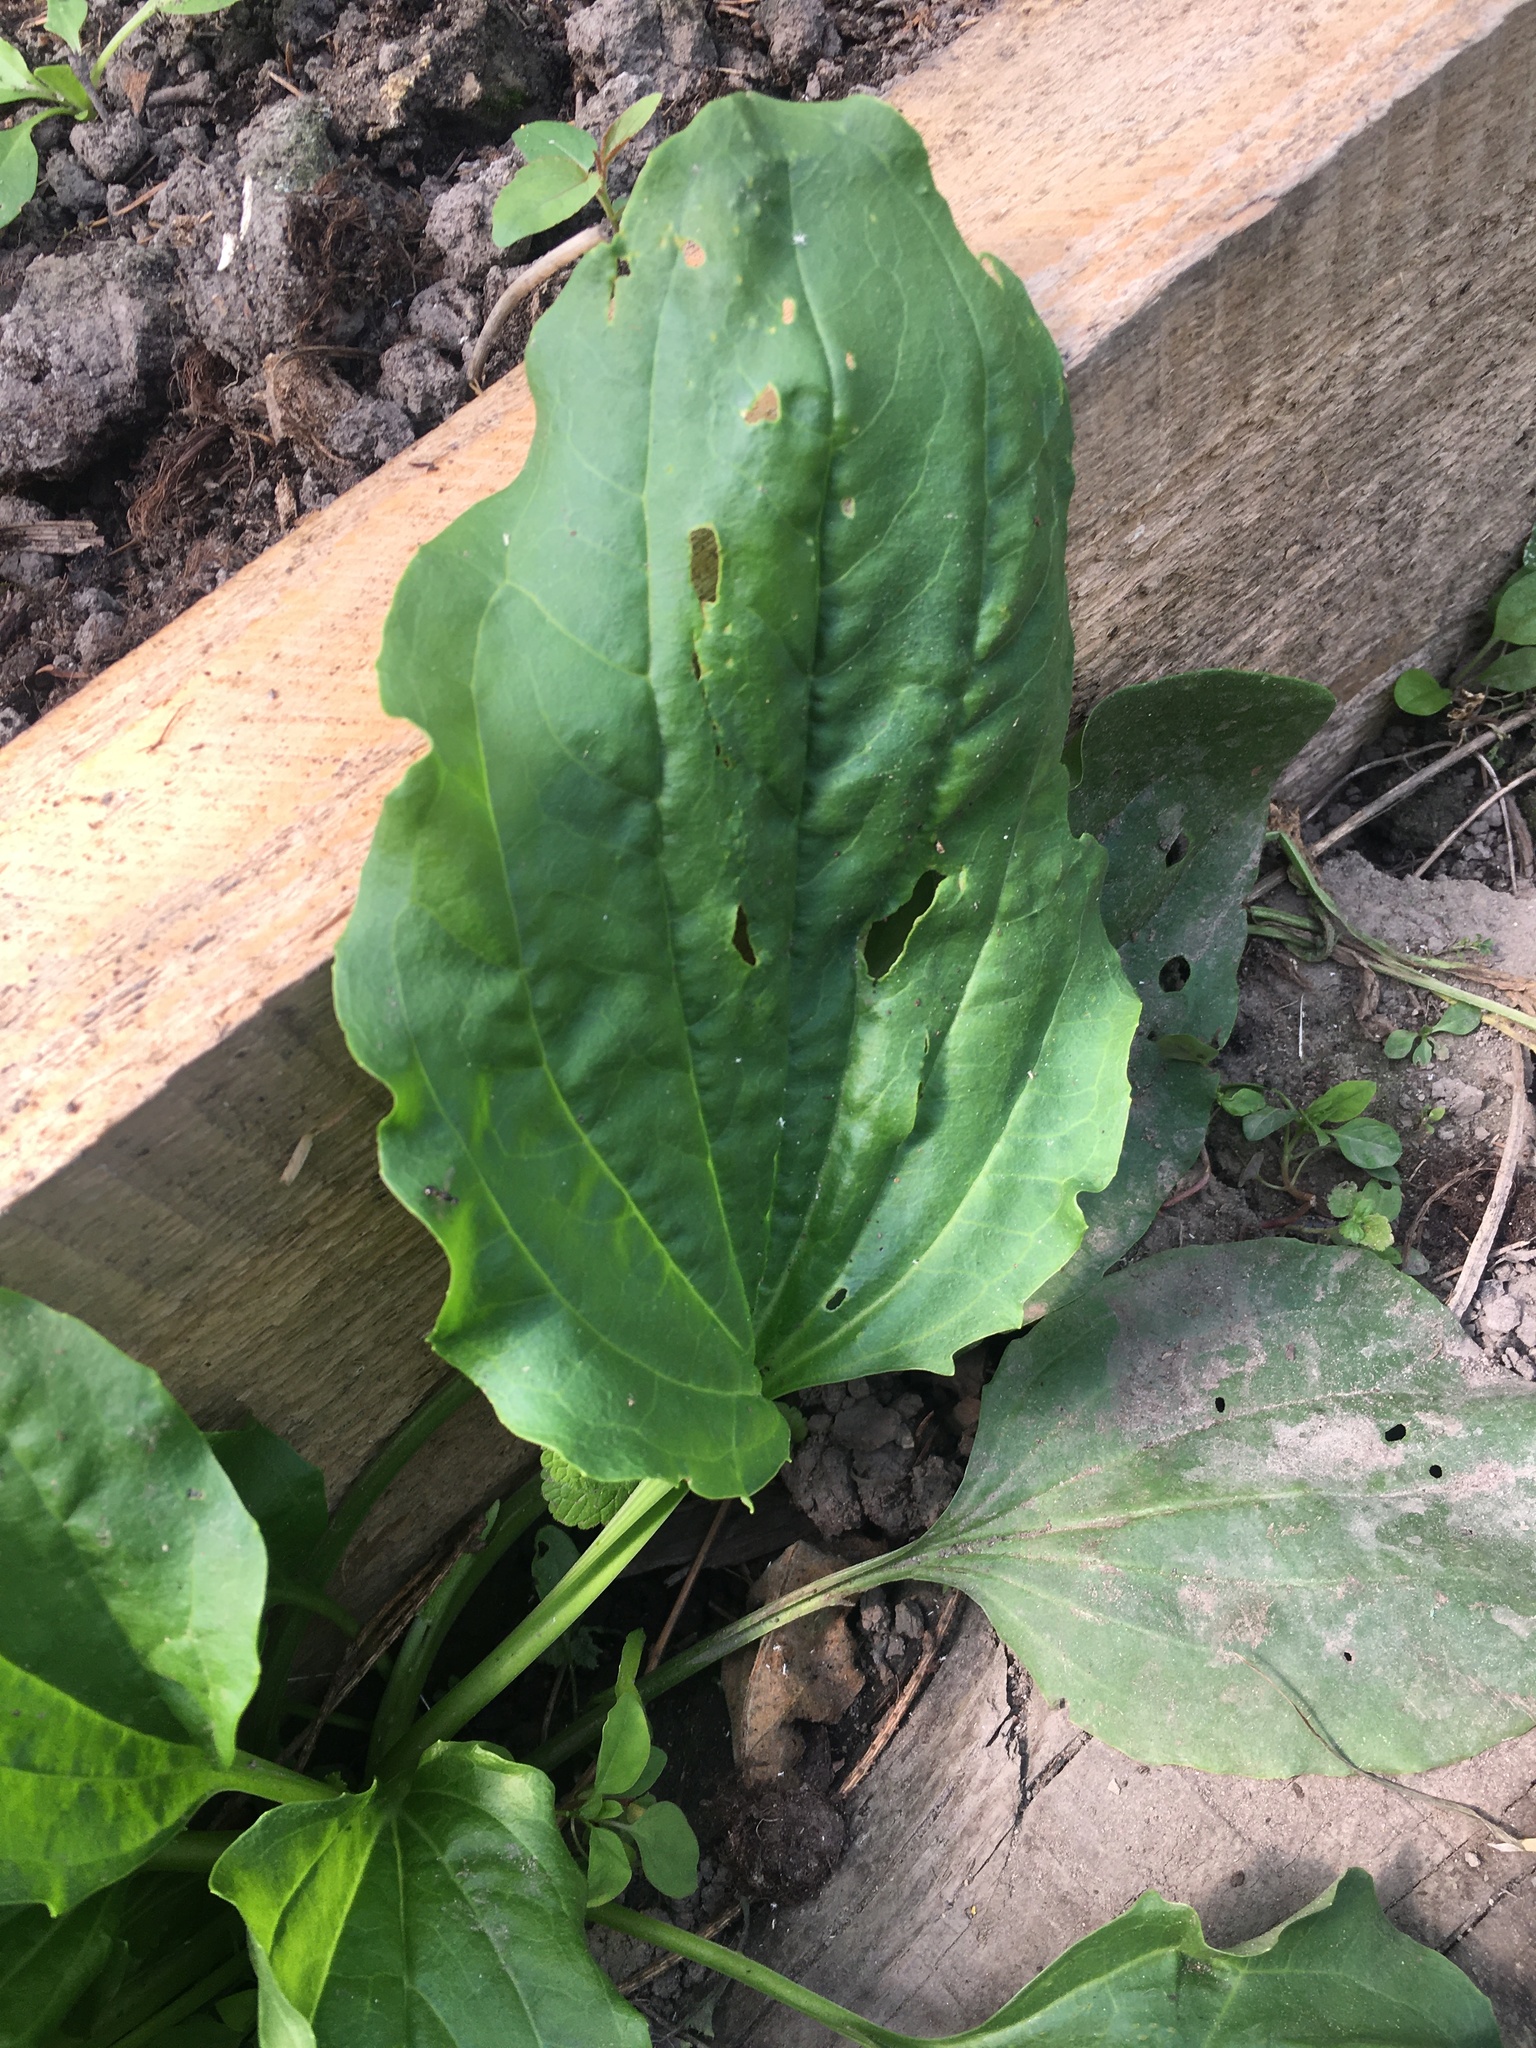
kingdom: Plantae
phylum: Tracheophyta
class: Magnoliopsida
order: Lamiales
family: Plantaginaceae
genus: Plantago
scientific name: Plantago major
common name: Common plantain
